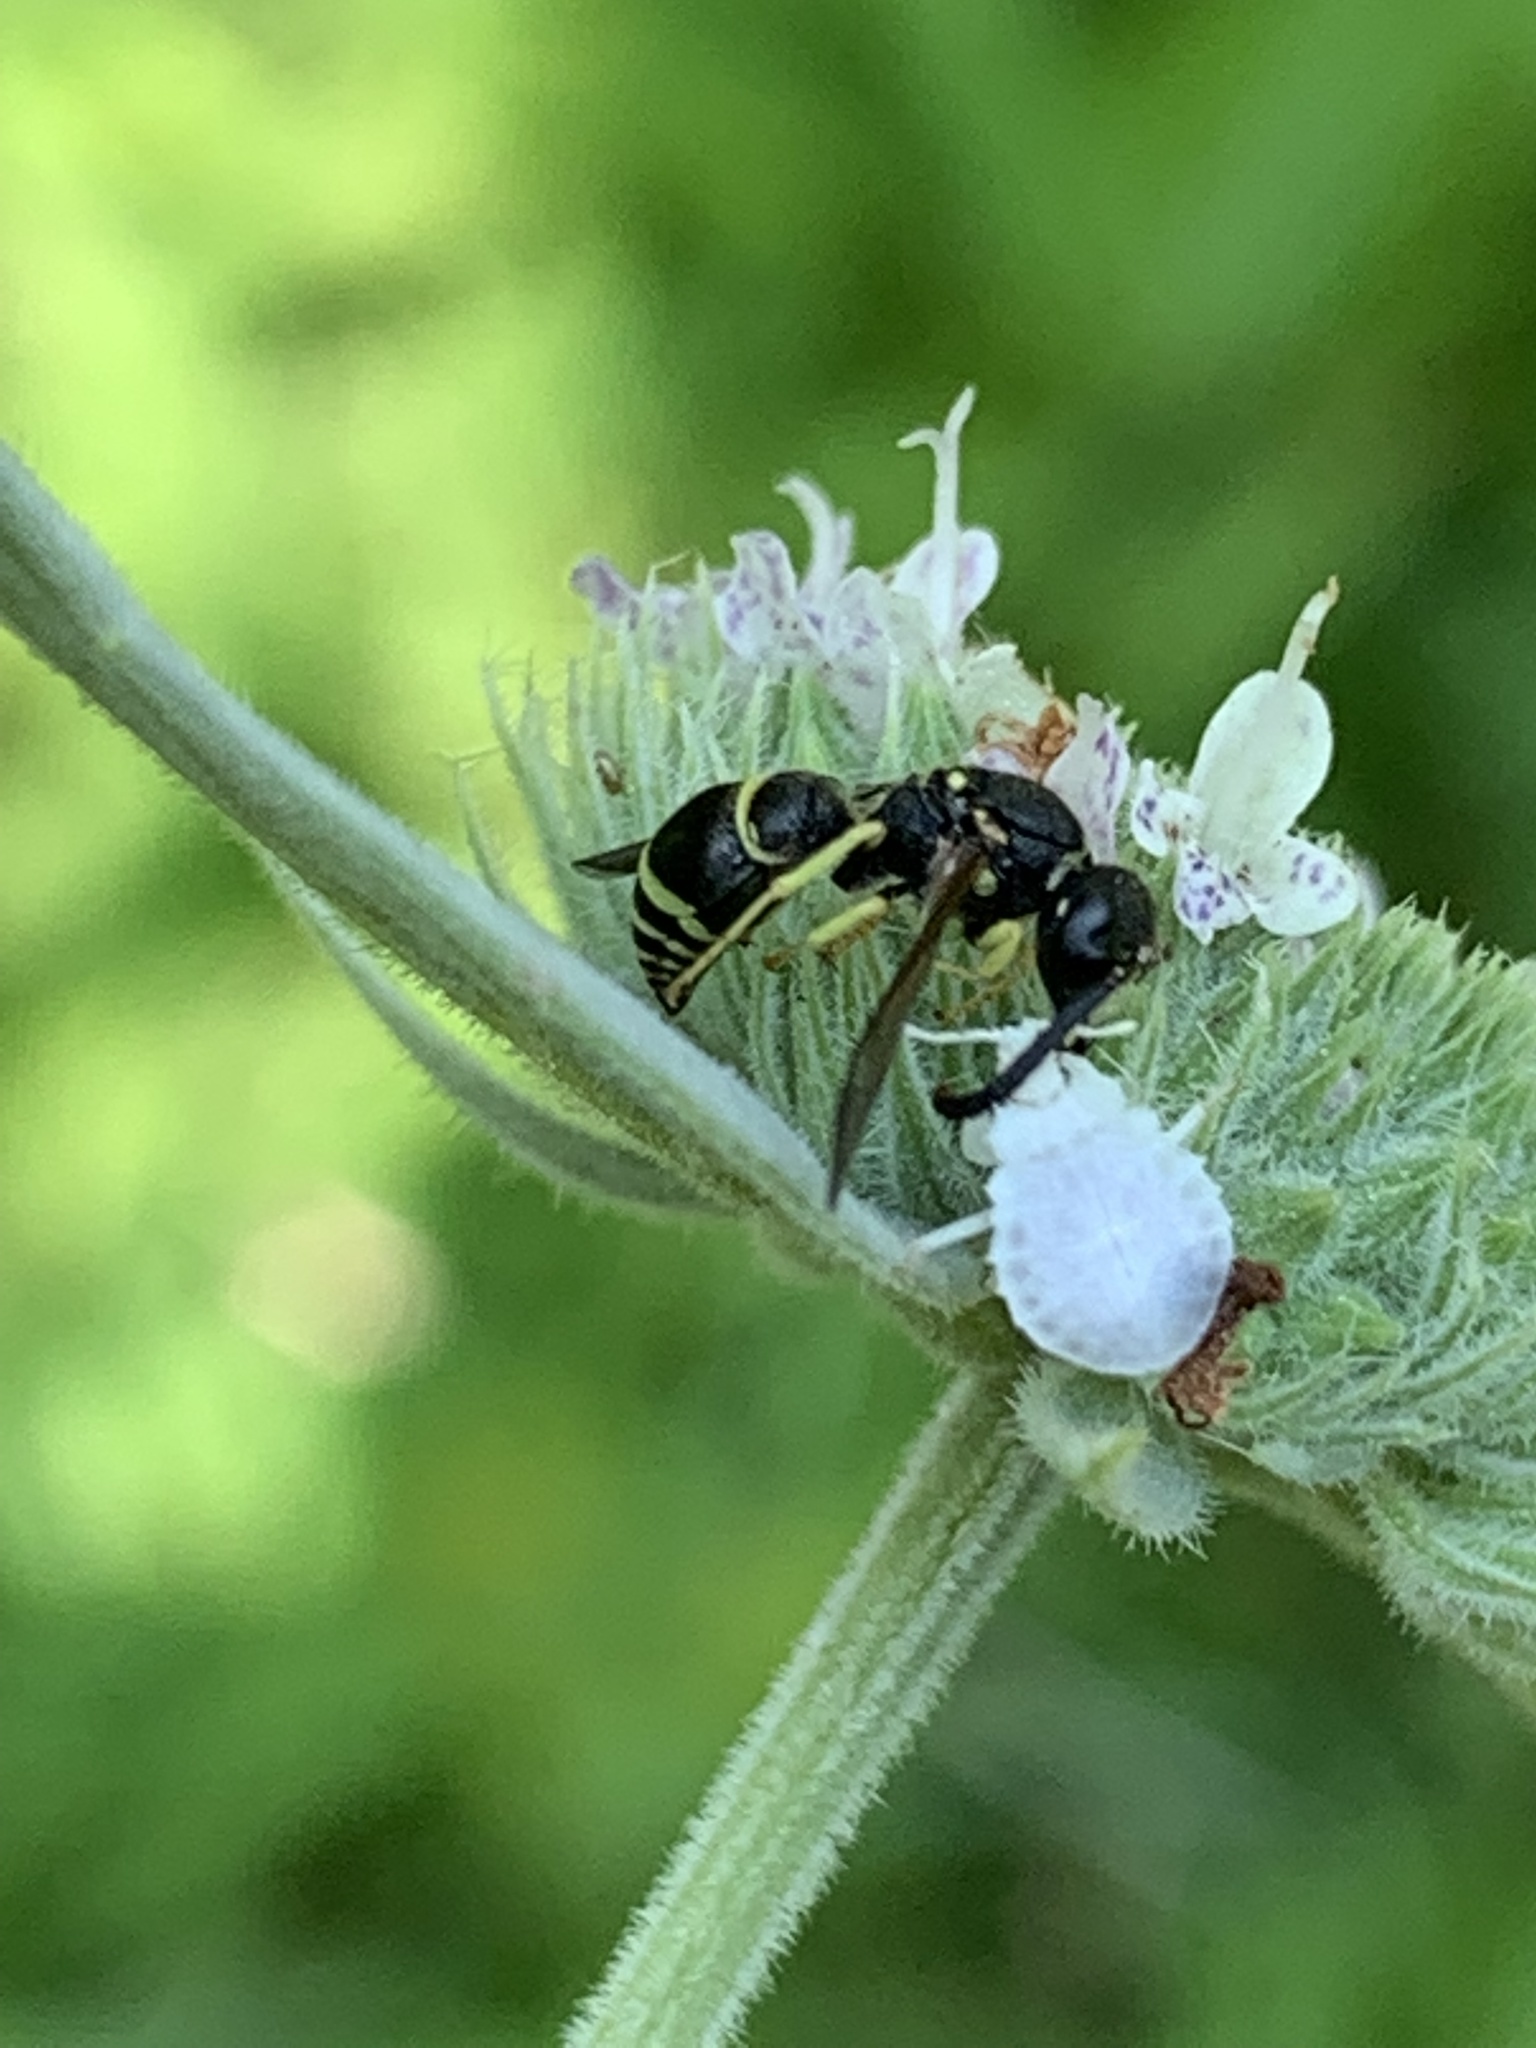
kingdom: Animalia
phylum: Arthropoda
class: Insecta
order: Hymenoptera
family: Eumenidae
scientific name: Eumenidae
